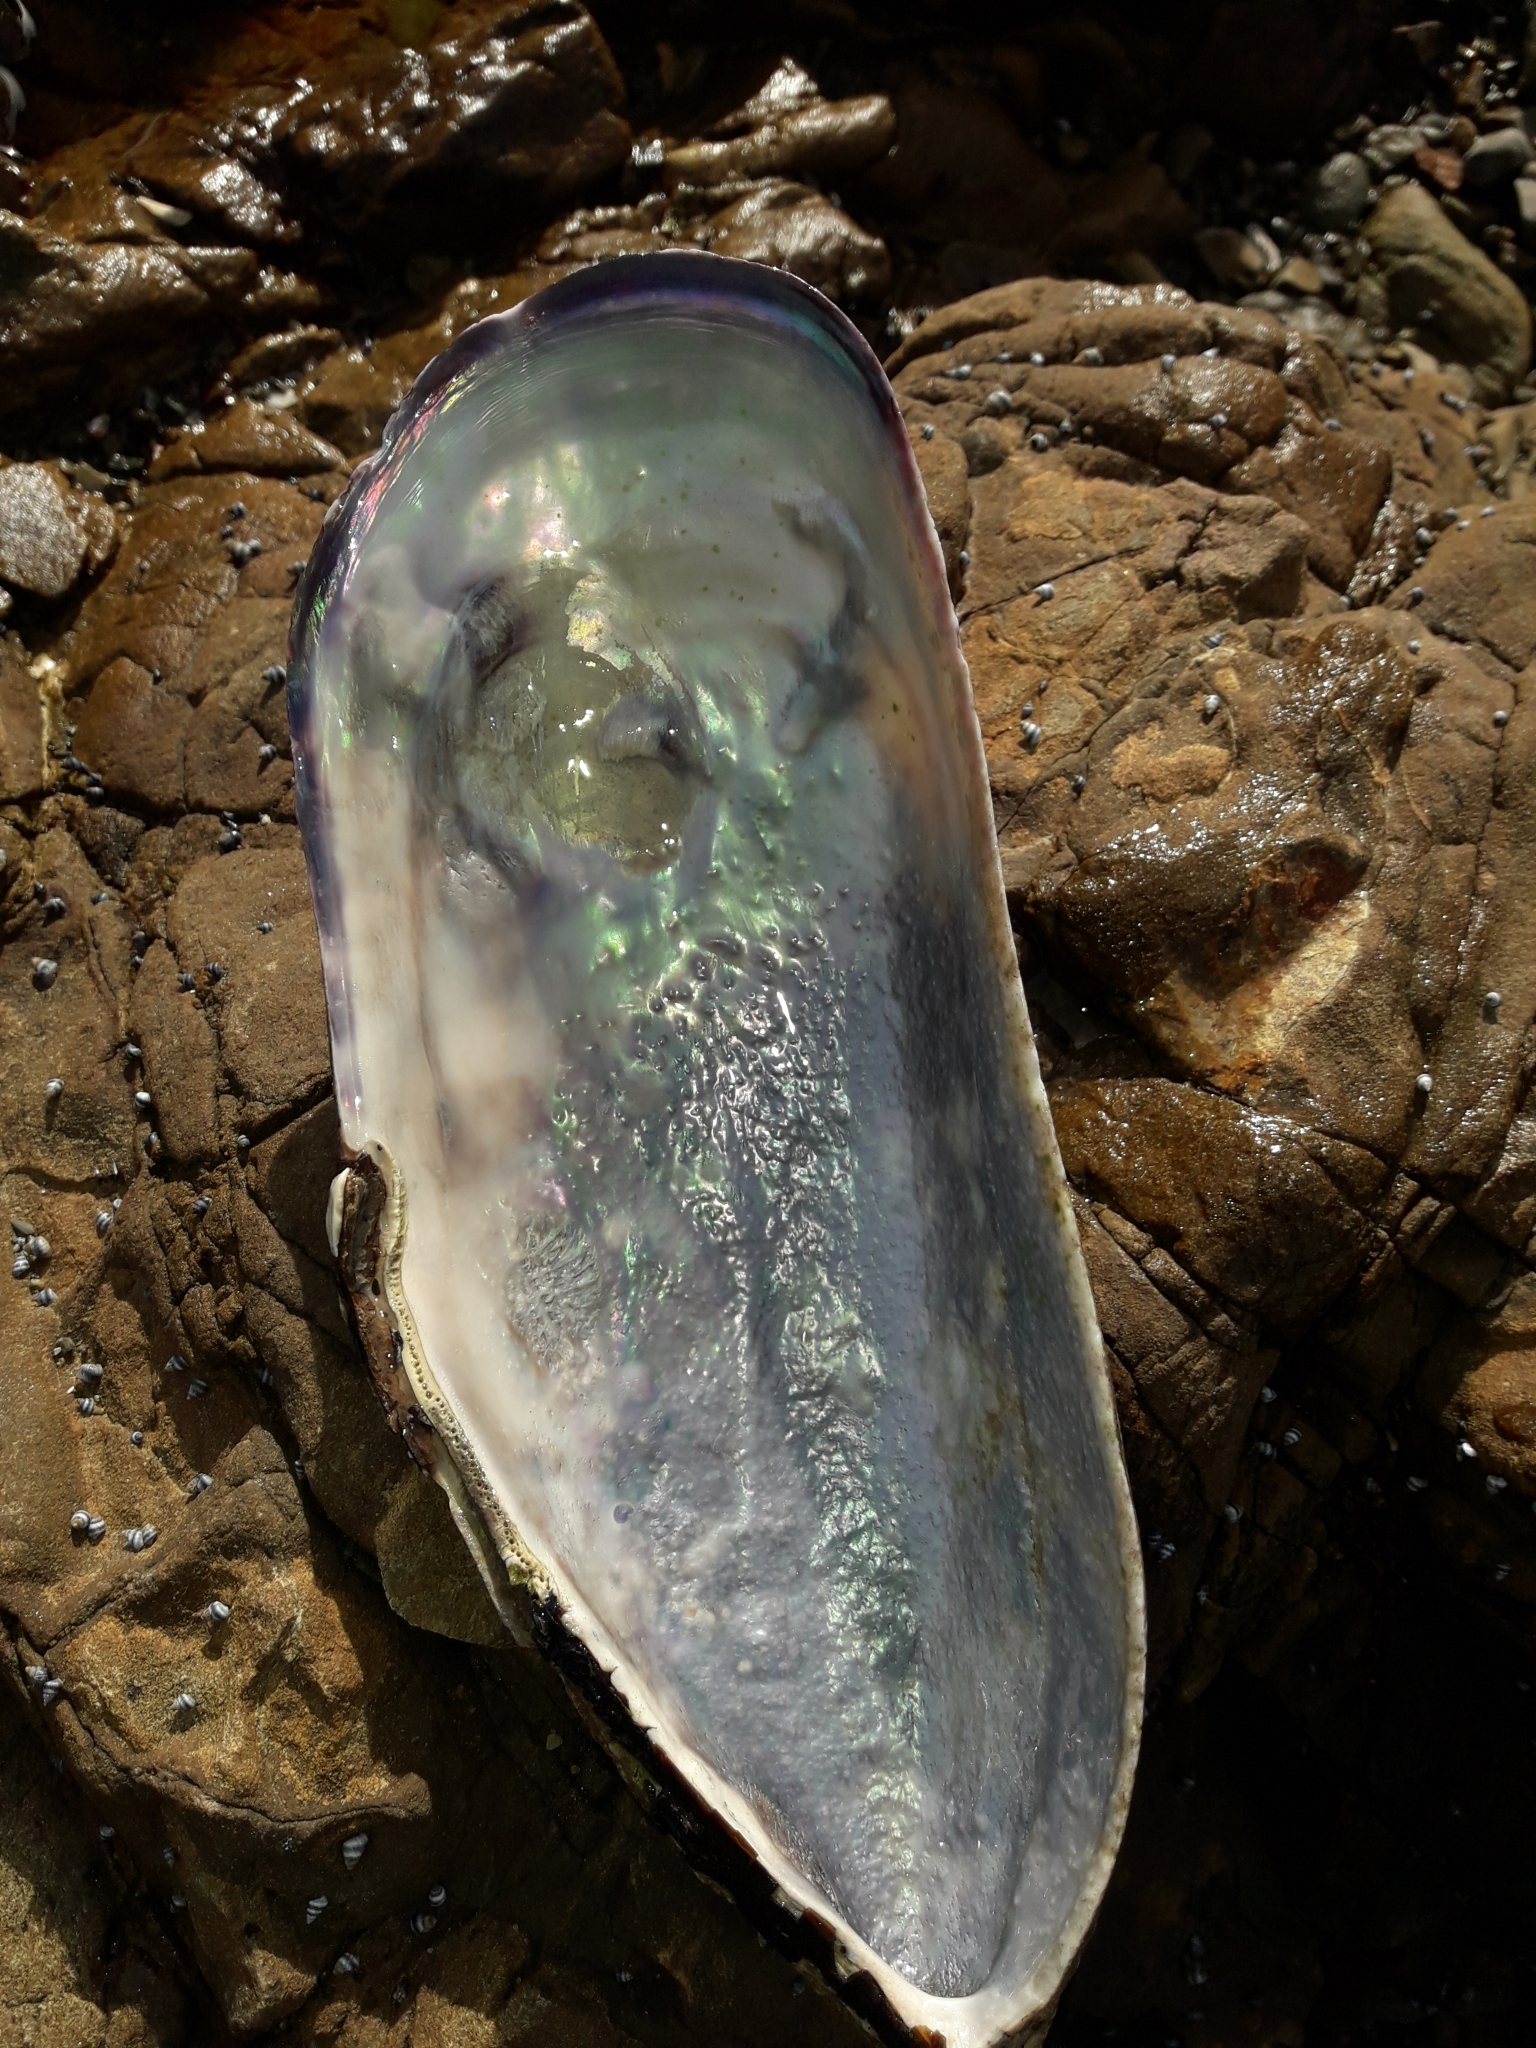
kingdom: Animalia
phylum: Mollusca
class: Bivalvia
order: Mytilida
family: Mytilidae
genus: Perna
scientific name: Perna canaliculus
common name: New zealand greenshelltm
